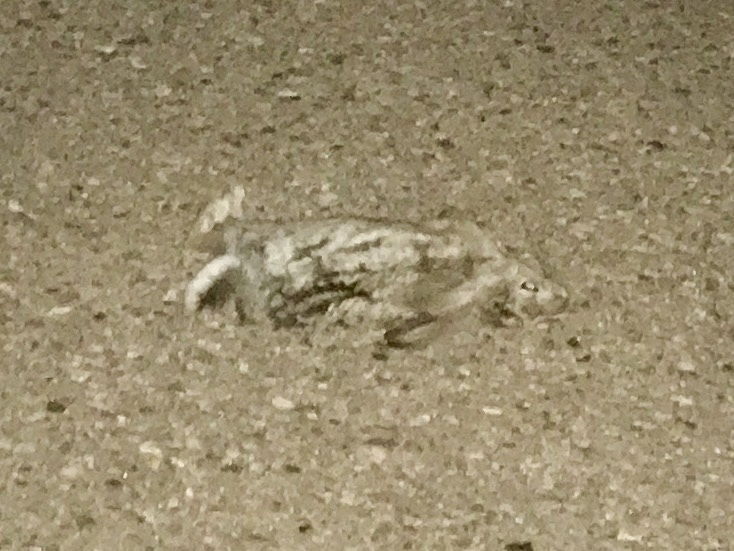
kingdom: Animalia
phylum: Chordata
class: Mammalia
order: Lagomorpha
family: Leporidae
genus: Sylvilagus
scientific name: Sylvilagus audubonii
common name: Desert cottontail
